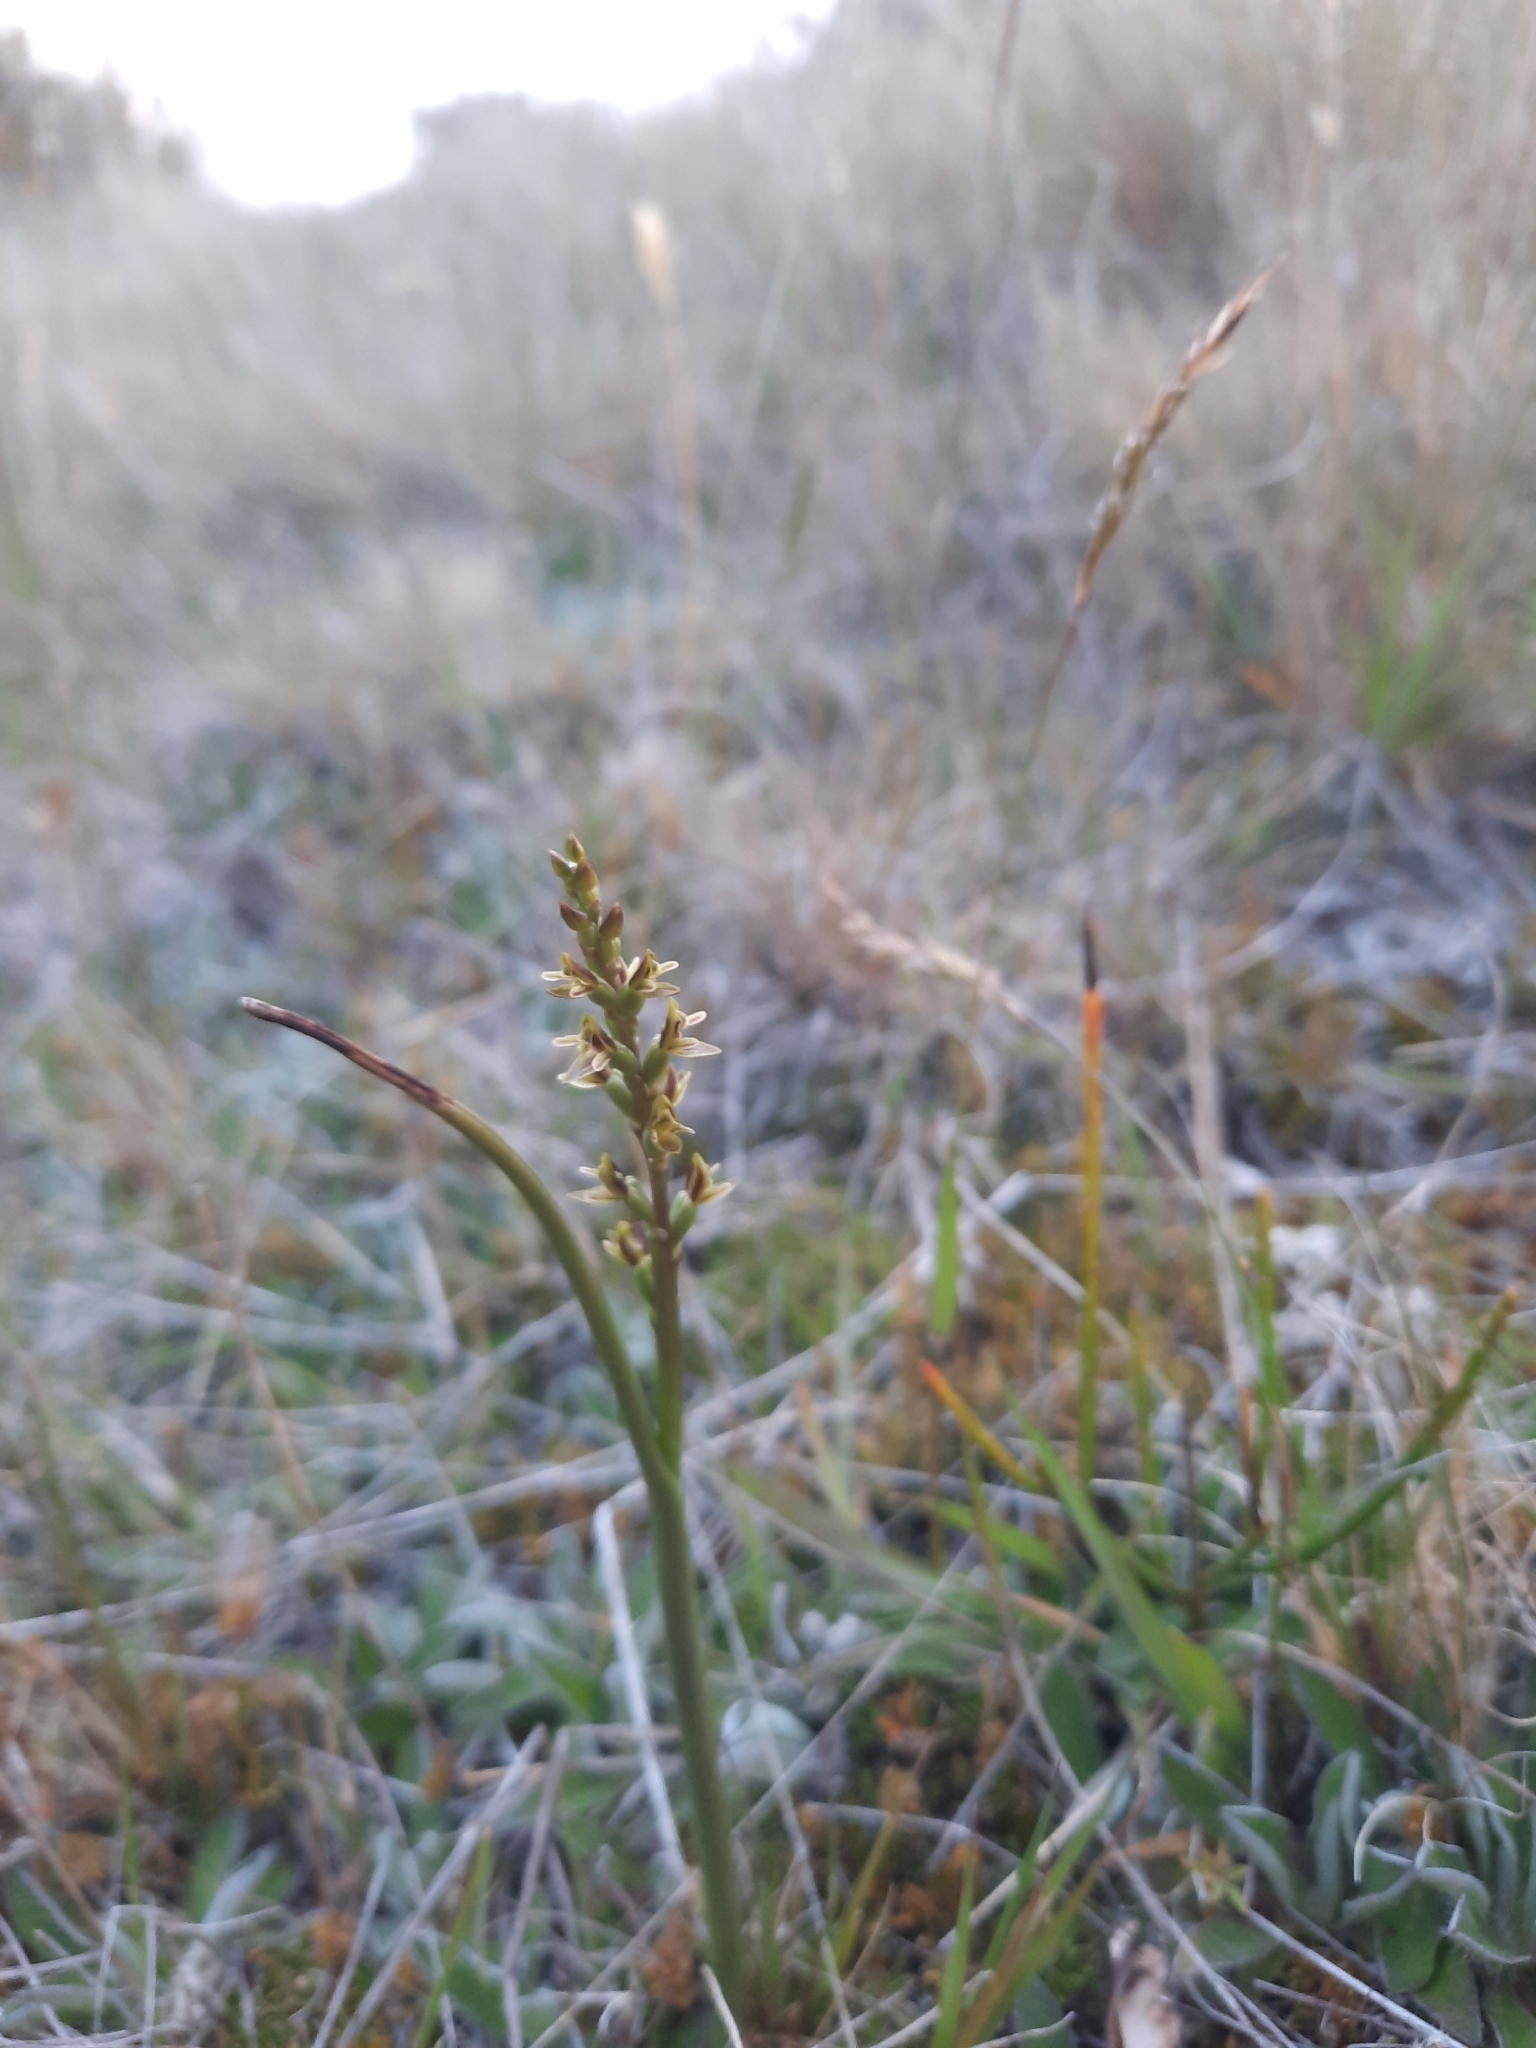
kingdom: Plantae
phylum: Tracheophyta
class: Liliopsida
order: Asparagales
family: Orchidaceae
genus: Prasophyllum
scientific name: Prasophyllum colensoi
